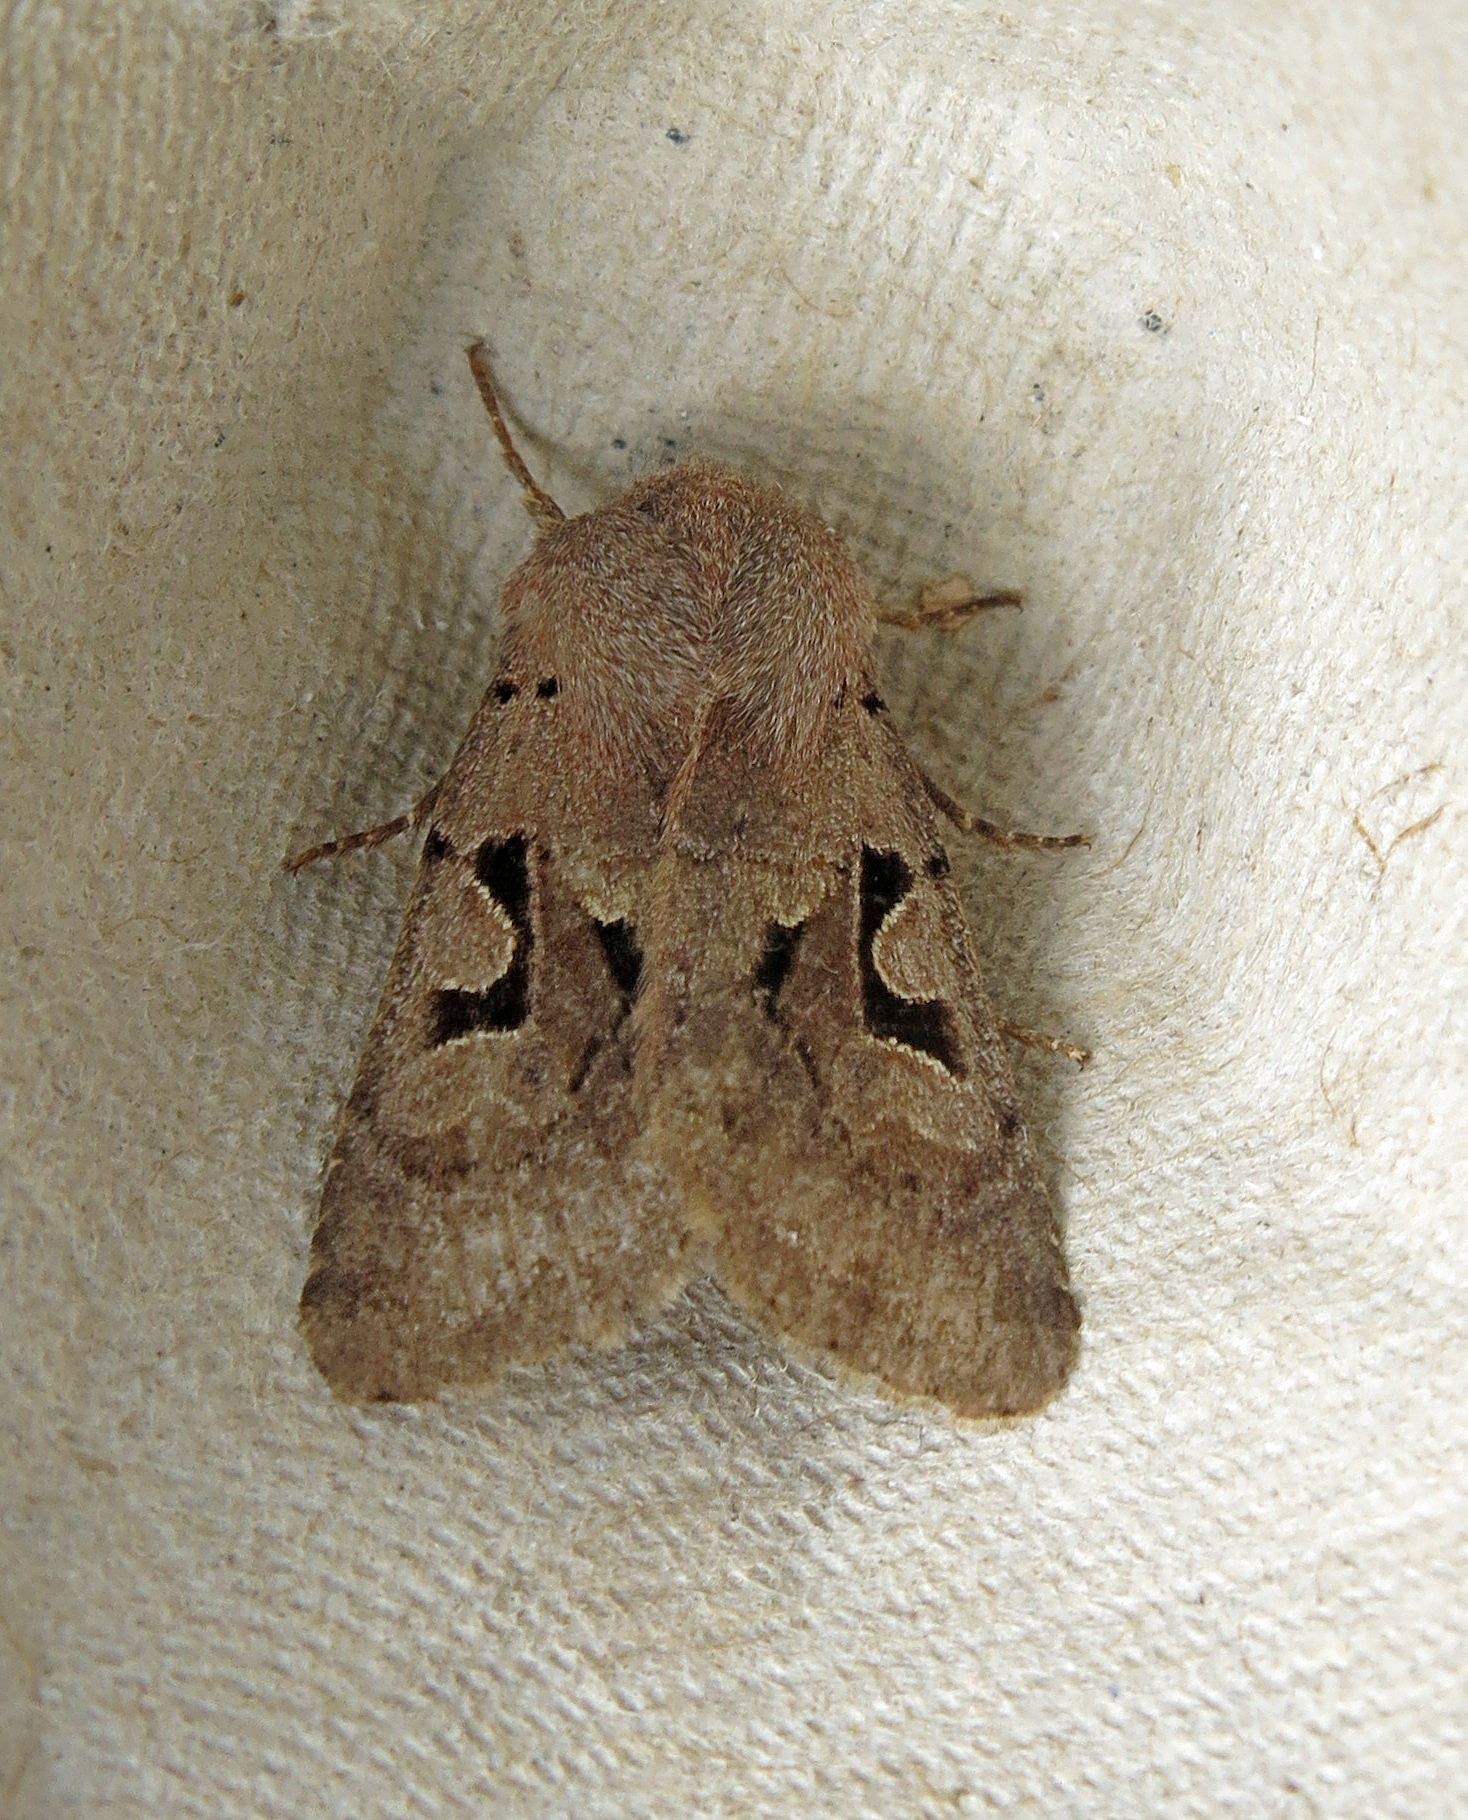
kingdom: Animalia
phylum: Arthropoda
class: Insecta
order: Lepidoptera
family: Noctuidae
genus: Orthosia
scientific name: Orthosia gothica
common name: Hebrew character
